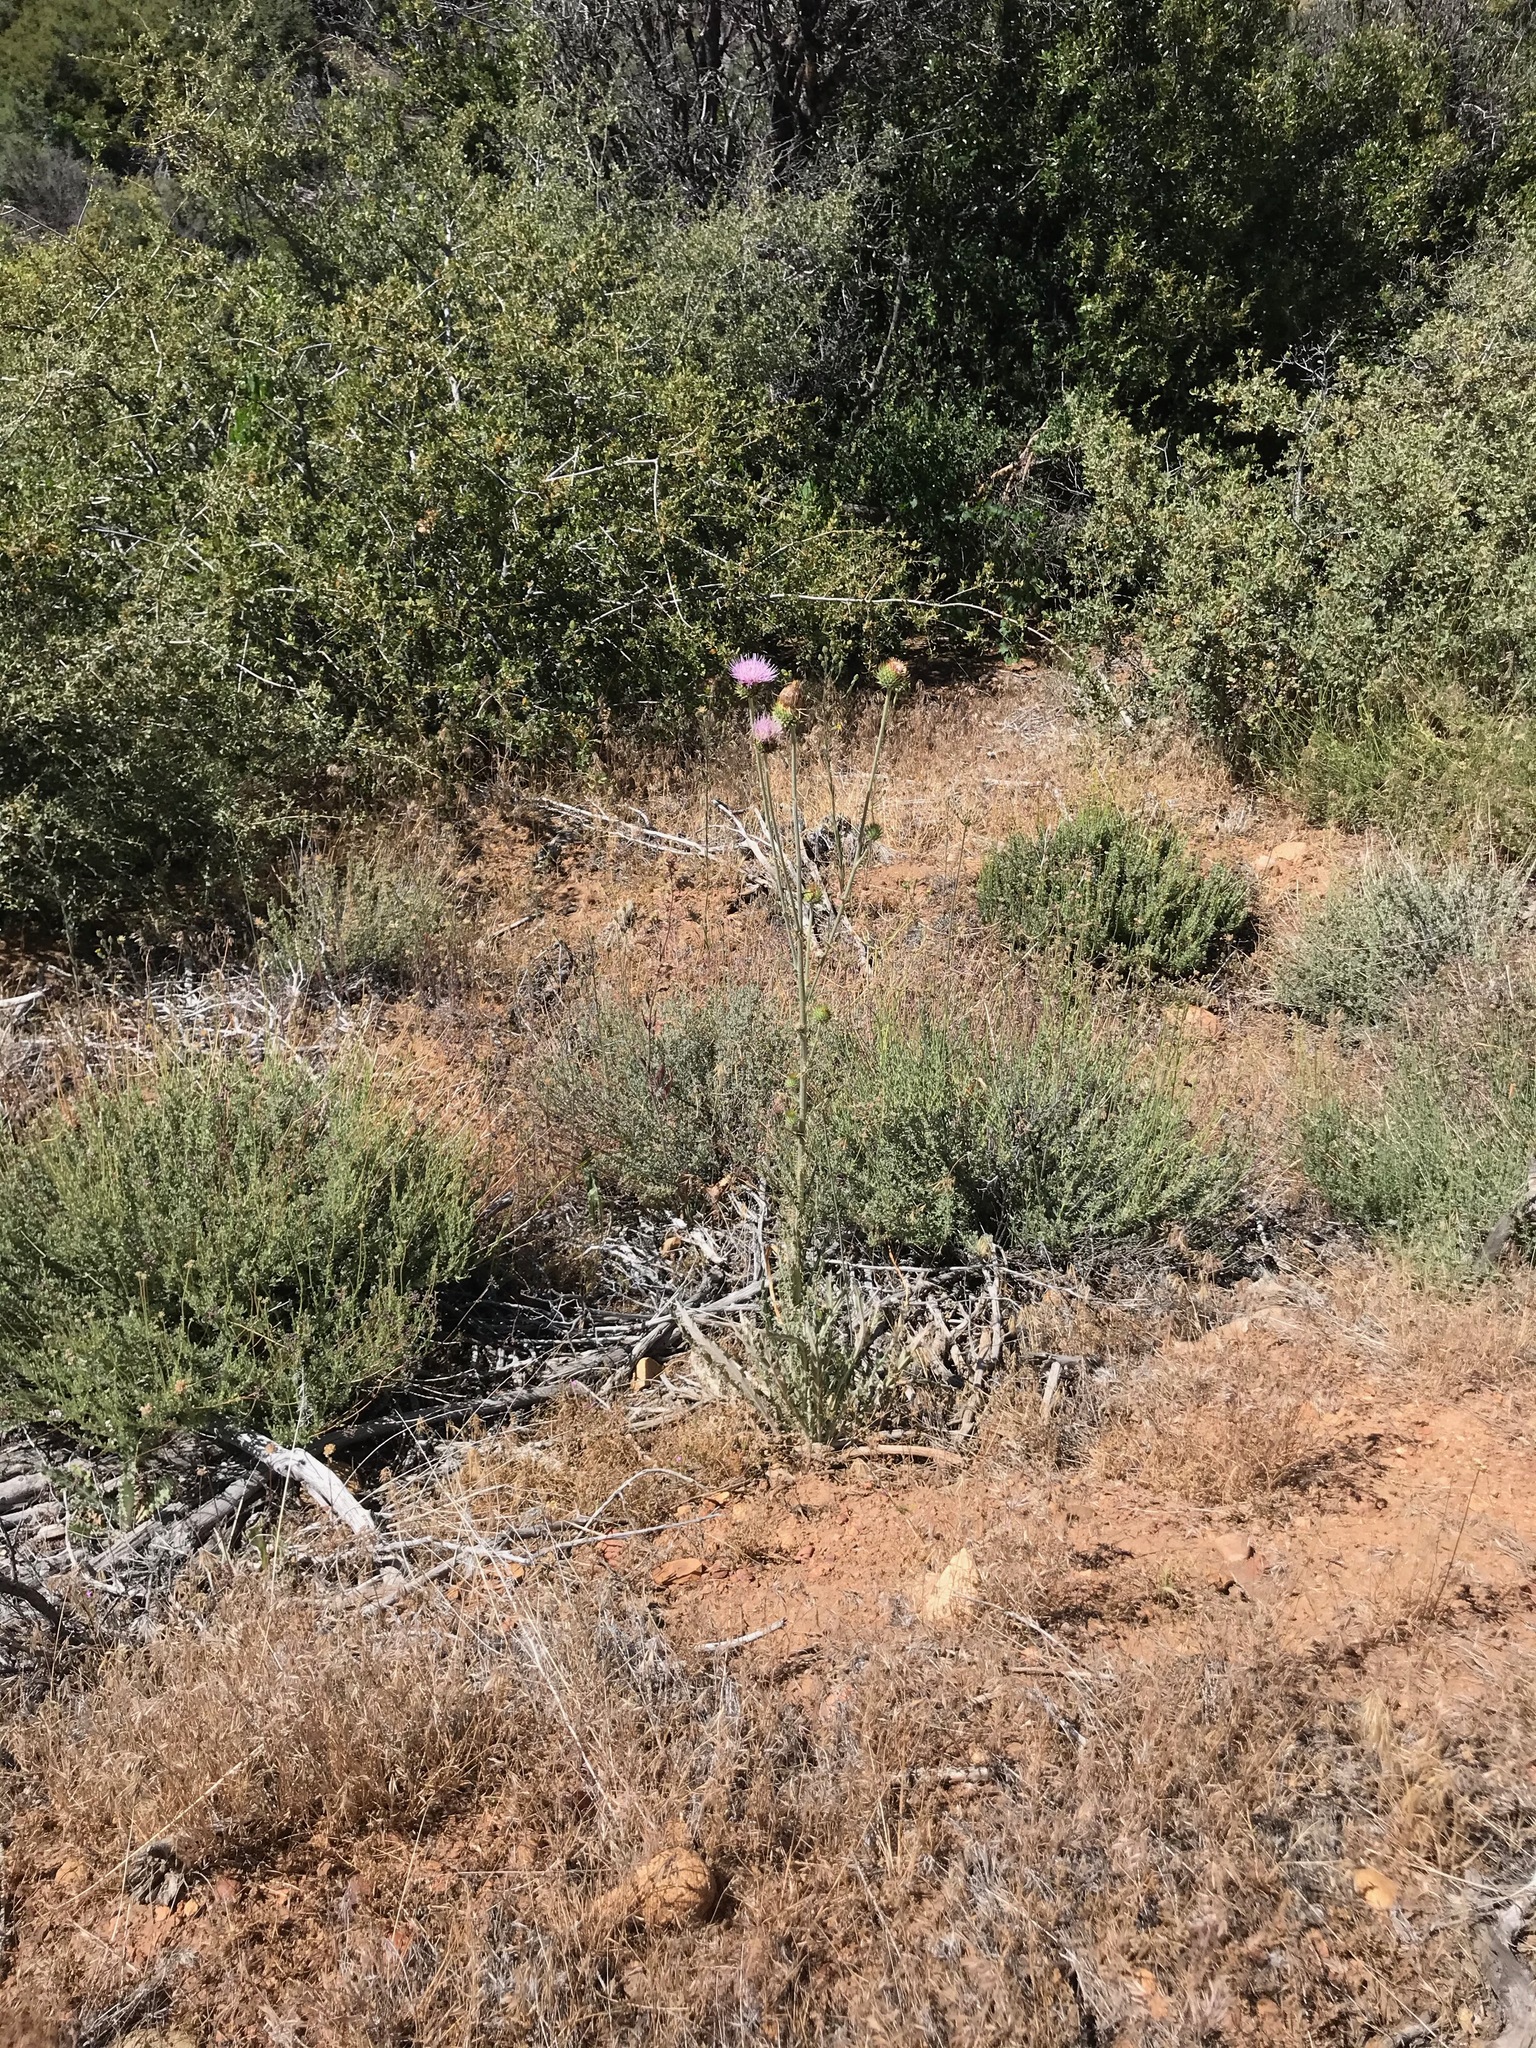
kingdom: Plantae
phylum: Tracheophyta
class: Magnoliopsida
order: Asterales
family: Asteraceae
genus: Cirsium
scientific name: Cirsium occidentale
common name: Western thistle
